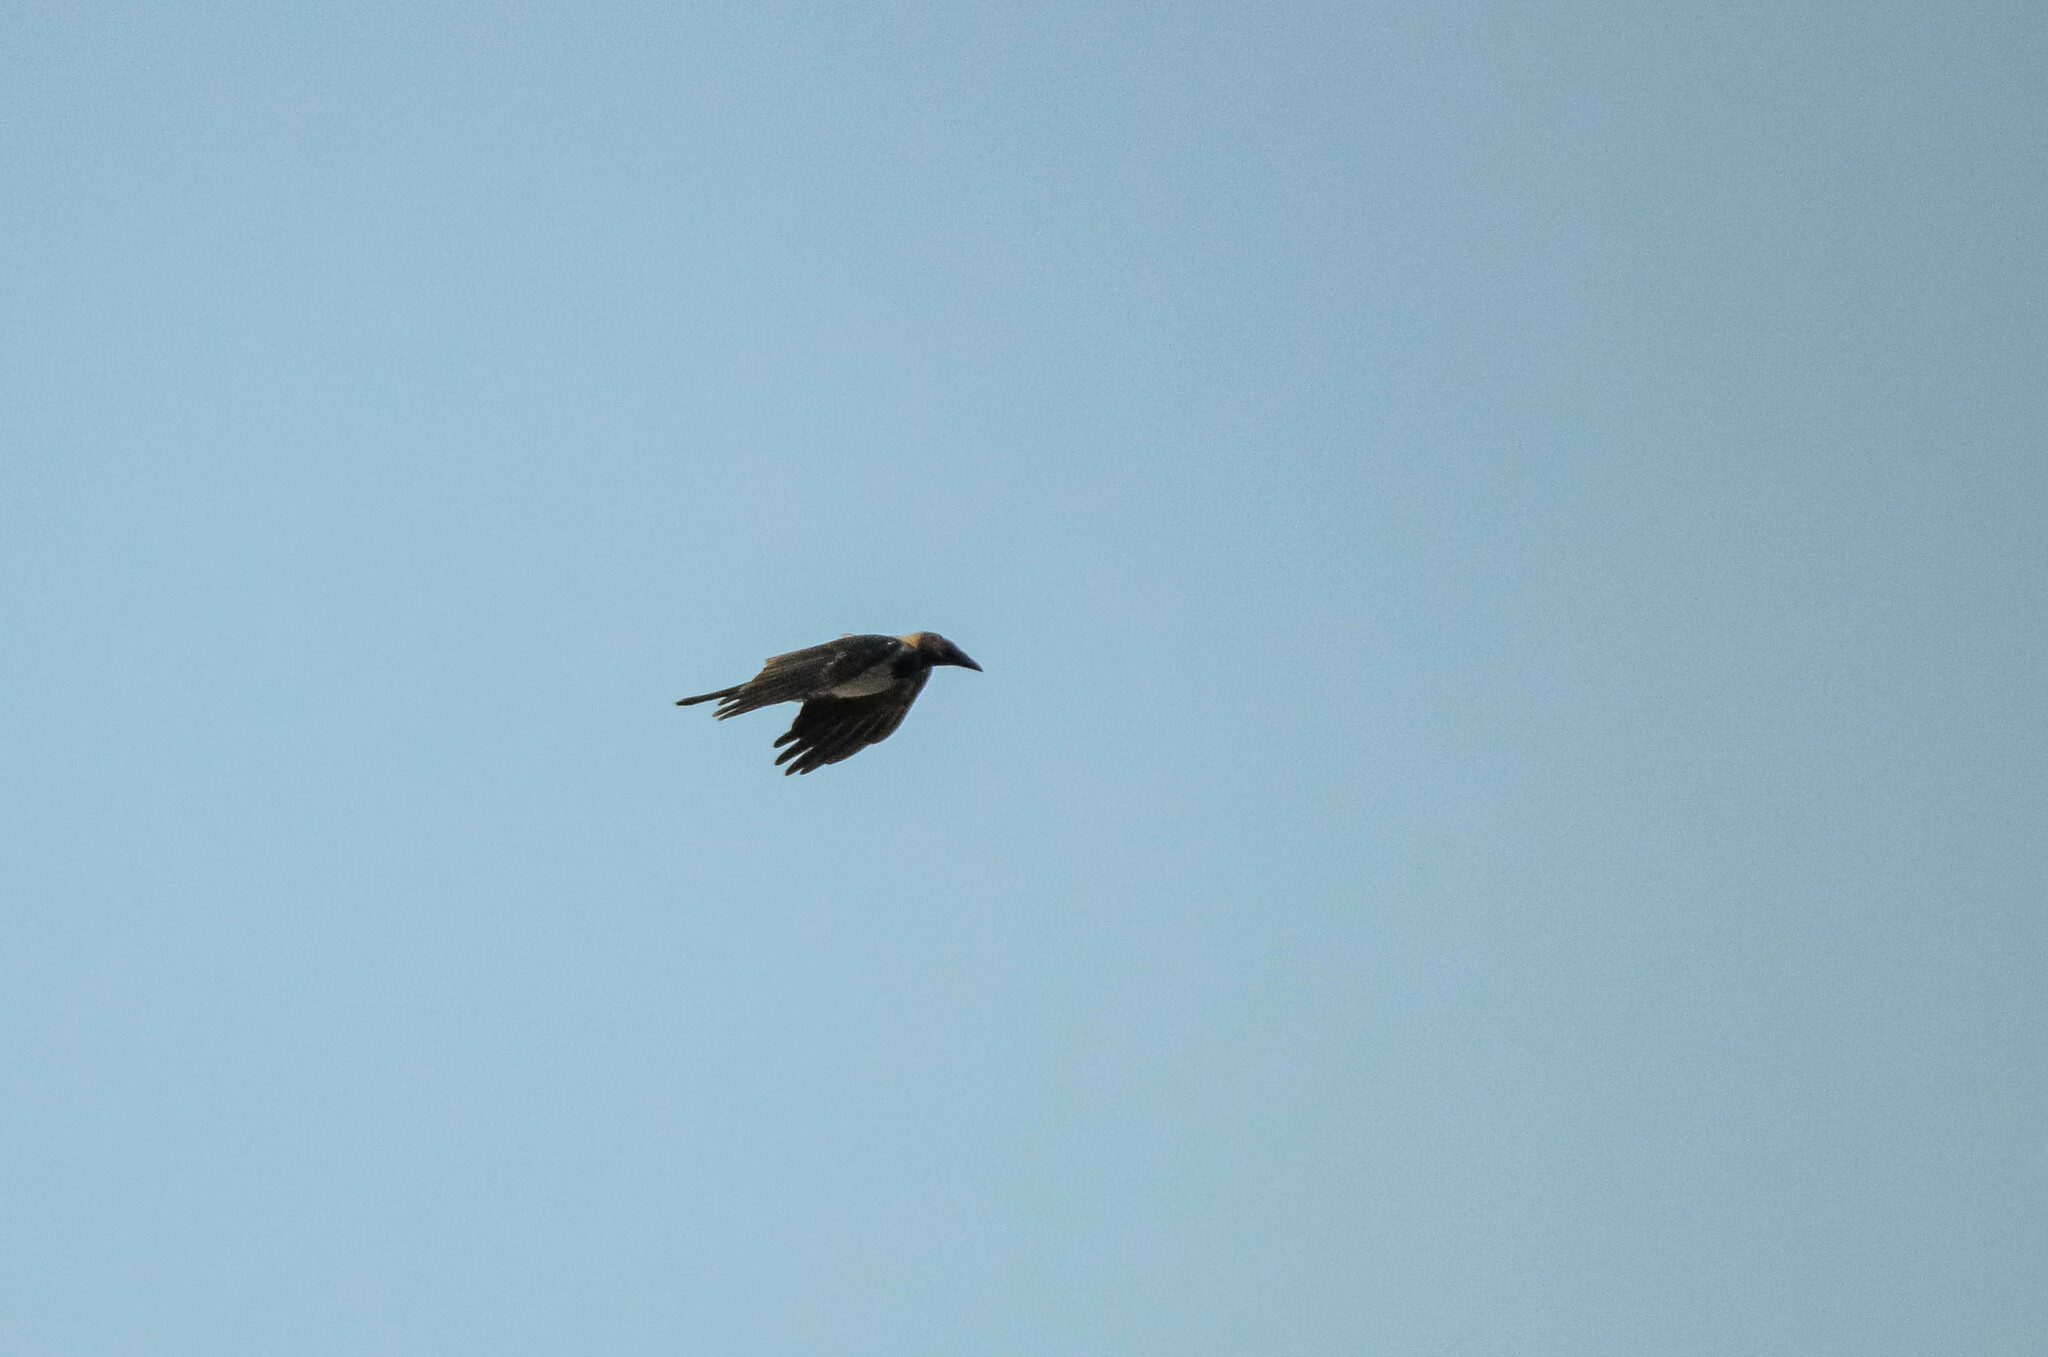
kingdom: Animalia
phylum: Chordata
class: Aves
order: Passeriformes
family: Corvidae
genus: Corvus
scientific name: Corvus cornix
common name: Hooded crow
